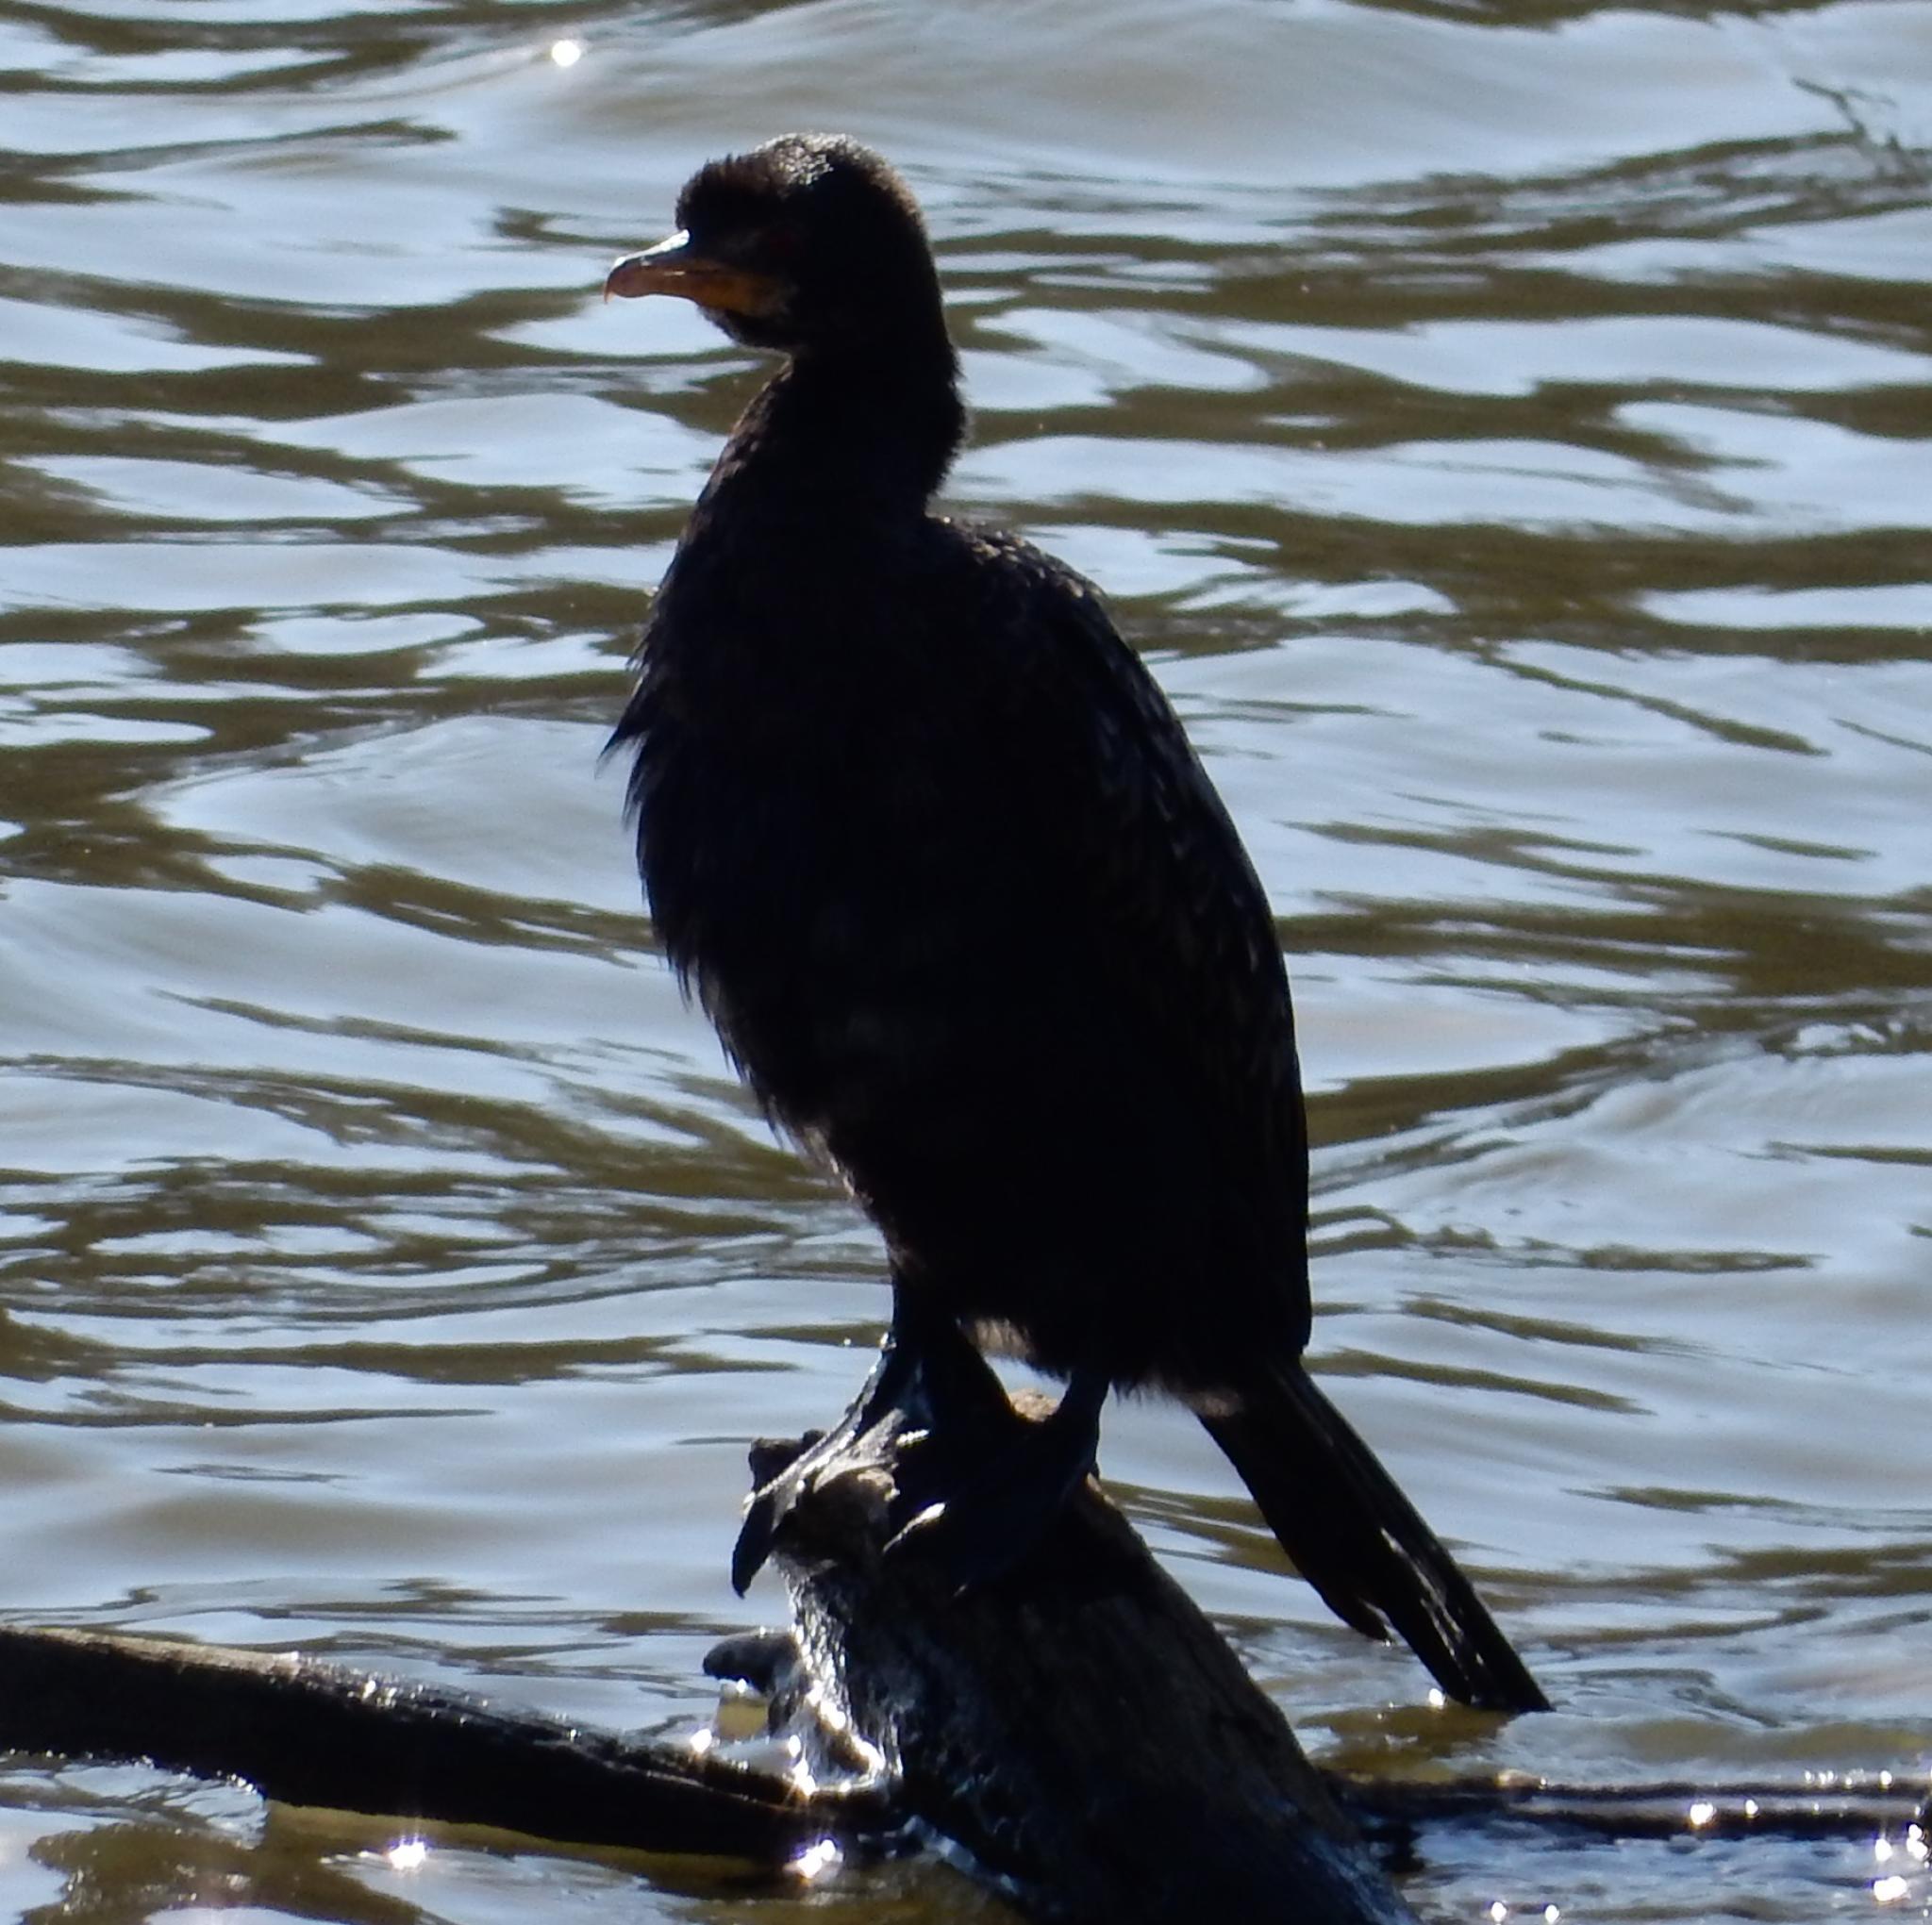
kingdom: Animalia
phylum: Chordata
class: Aves
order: Suliformes
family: Phalacrocoracidae
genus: Microcarbo
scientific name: Microcarbo africanus
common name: Long-tailed cormorant
